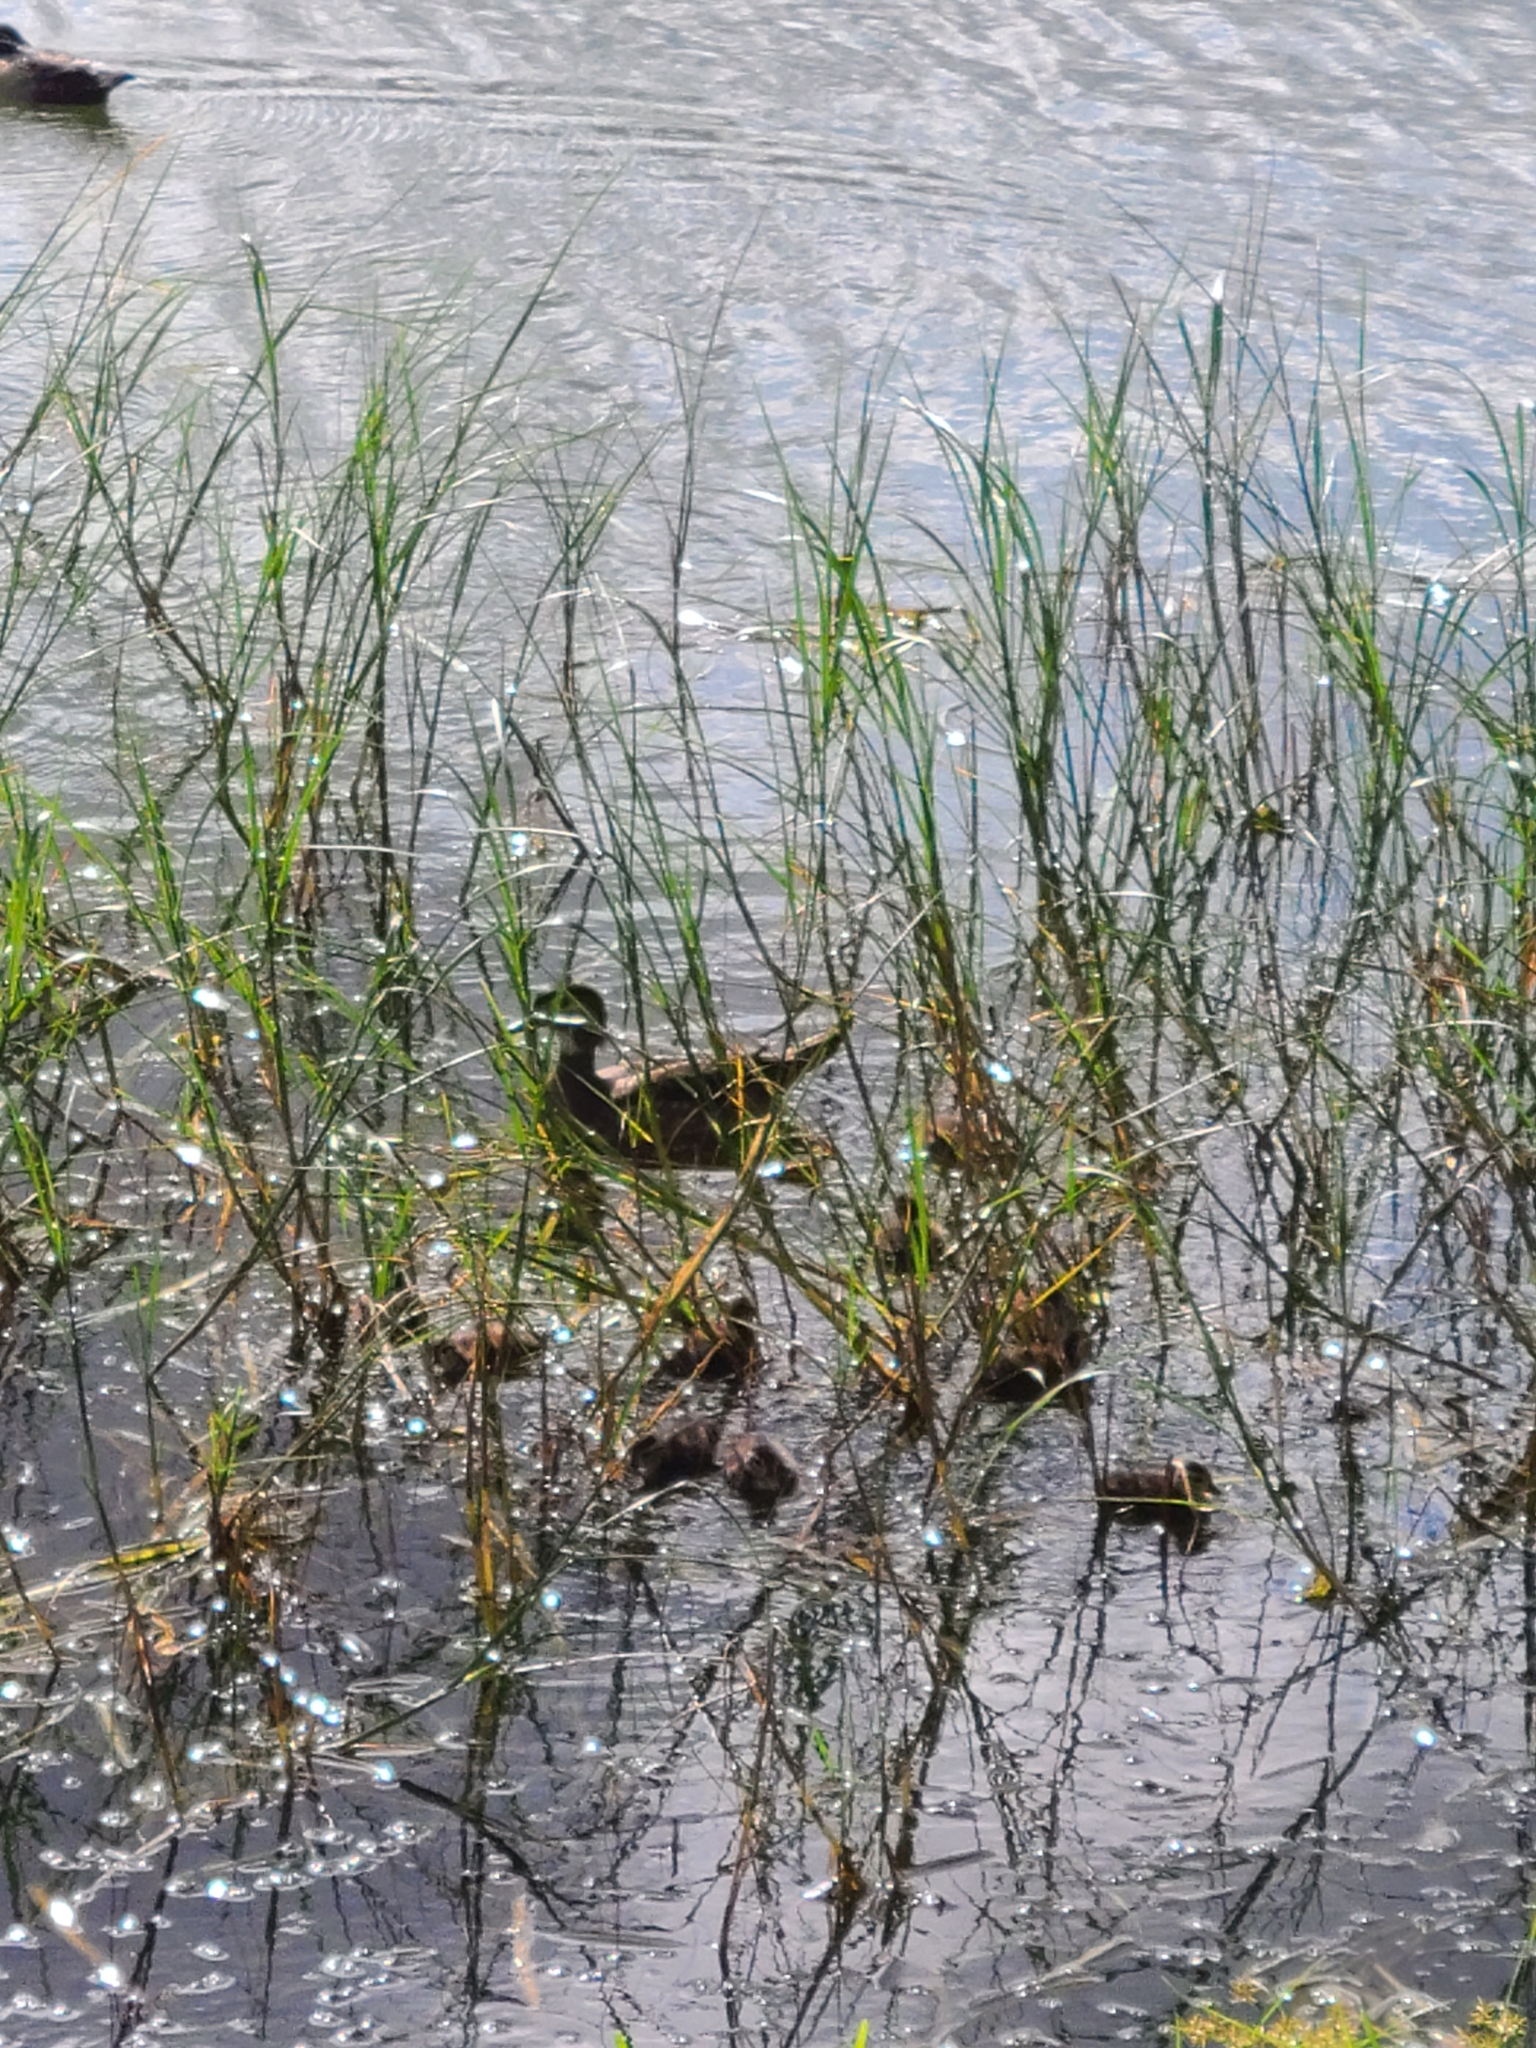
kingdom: Animalia
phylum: Chordata
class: Aves
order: Anseriformes
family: Anatidae
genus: Aix
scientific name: Aix sponsa
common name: Wood duck
